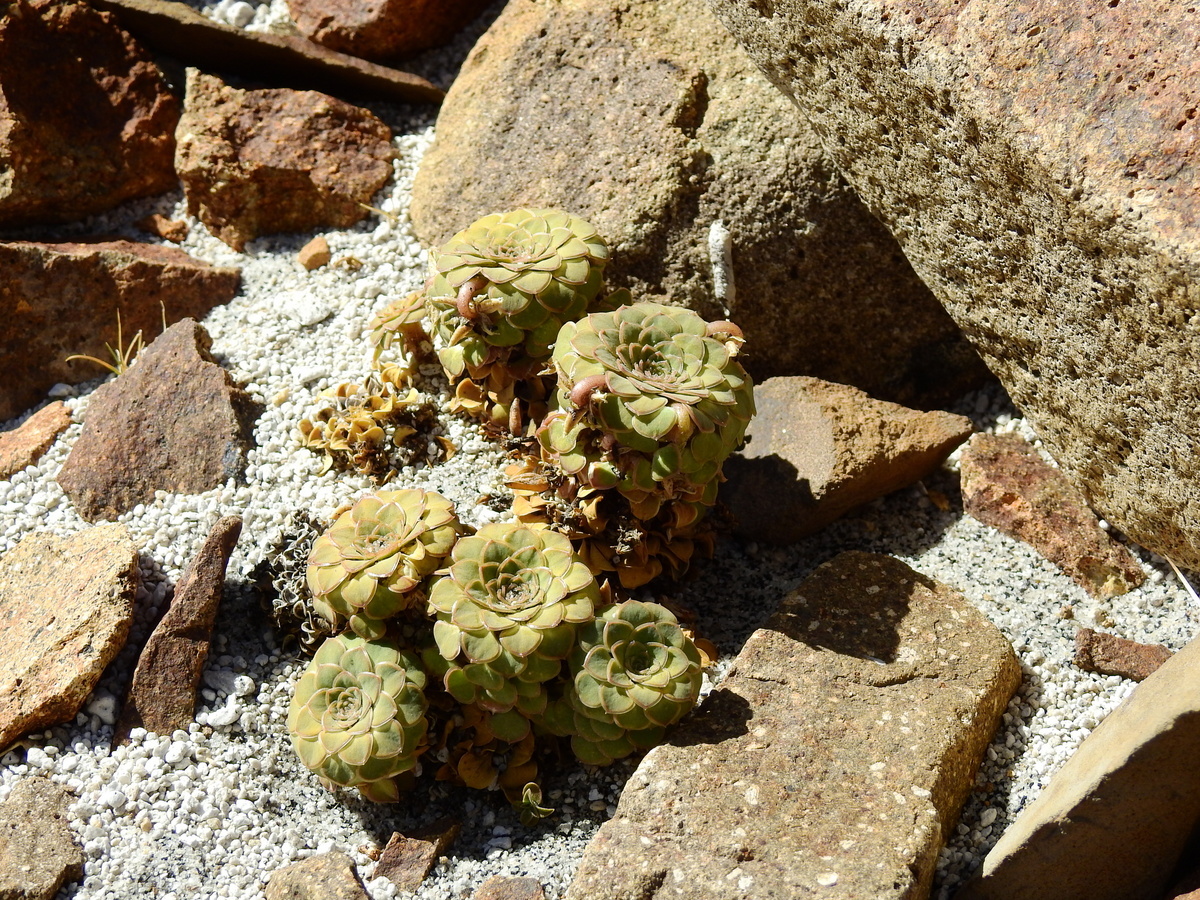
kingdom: Plantae
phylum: Tracheophyta
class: Magnoliopsida
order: Malpighiales
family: Violaceae
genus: Viola
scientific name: Viola columnaris
